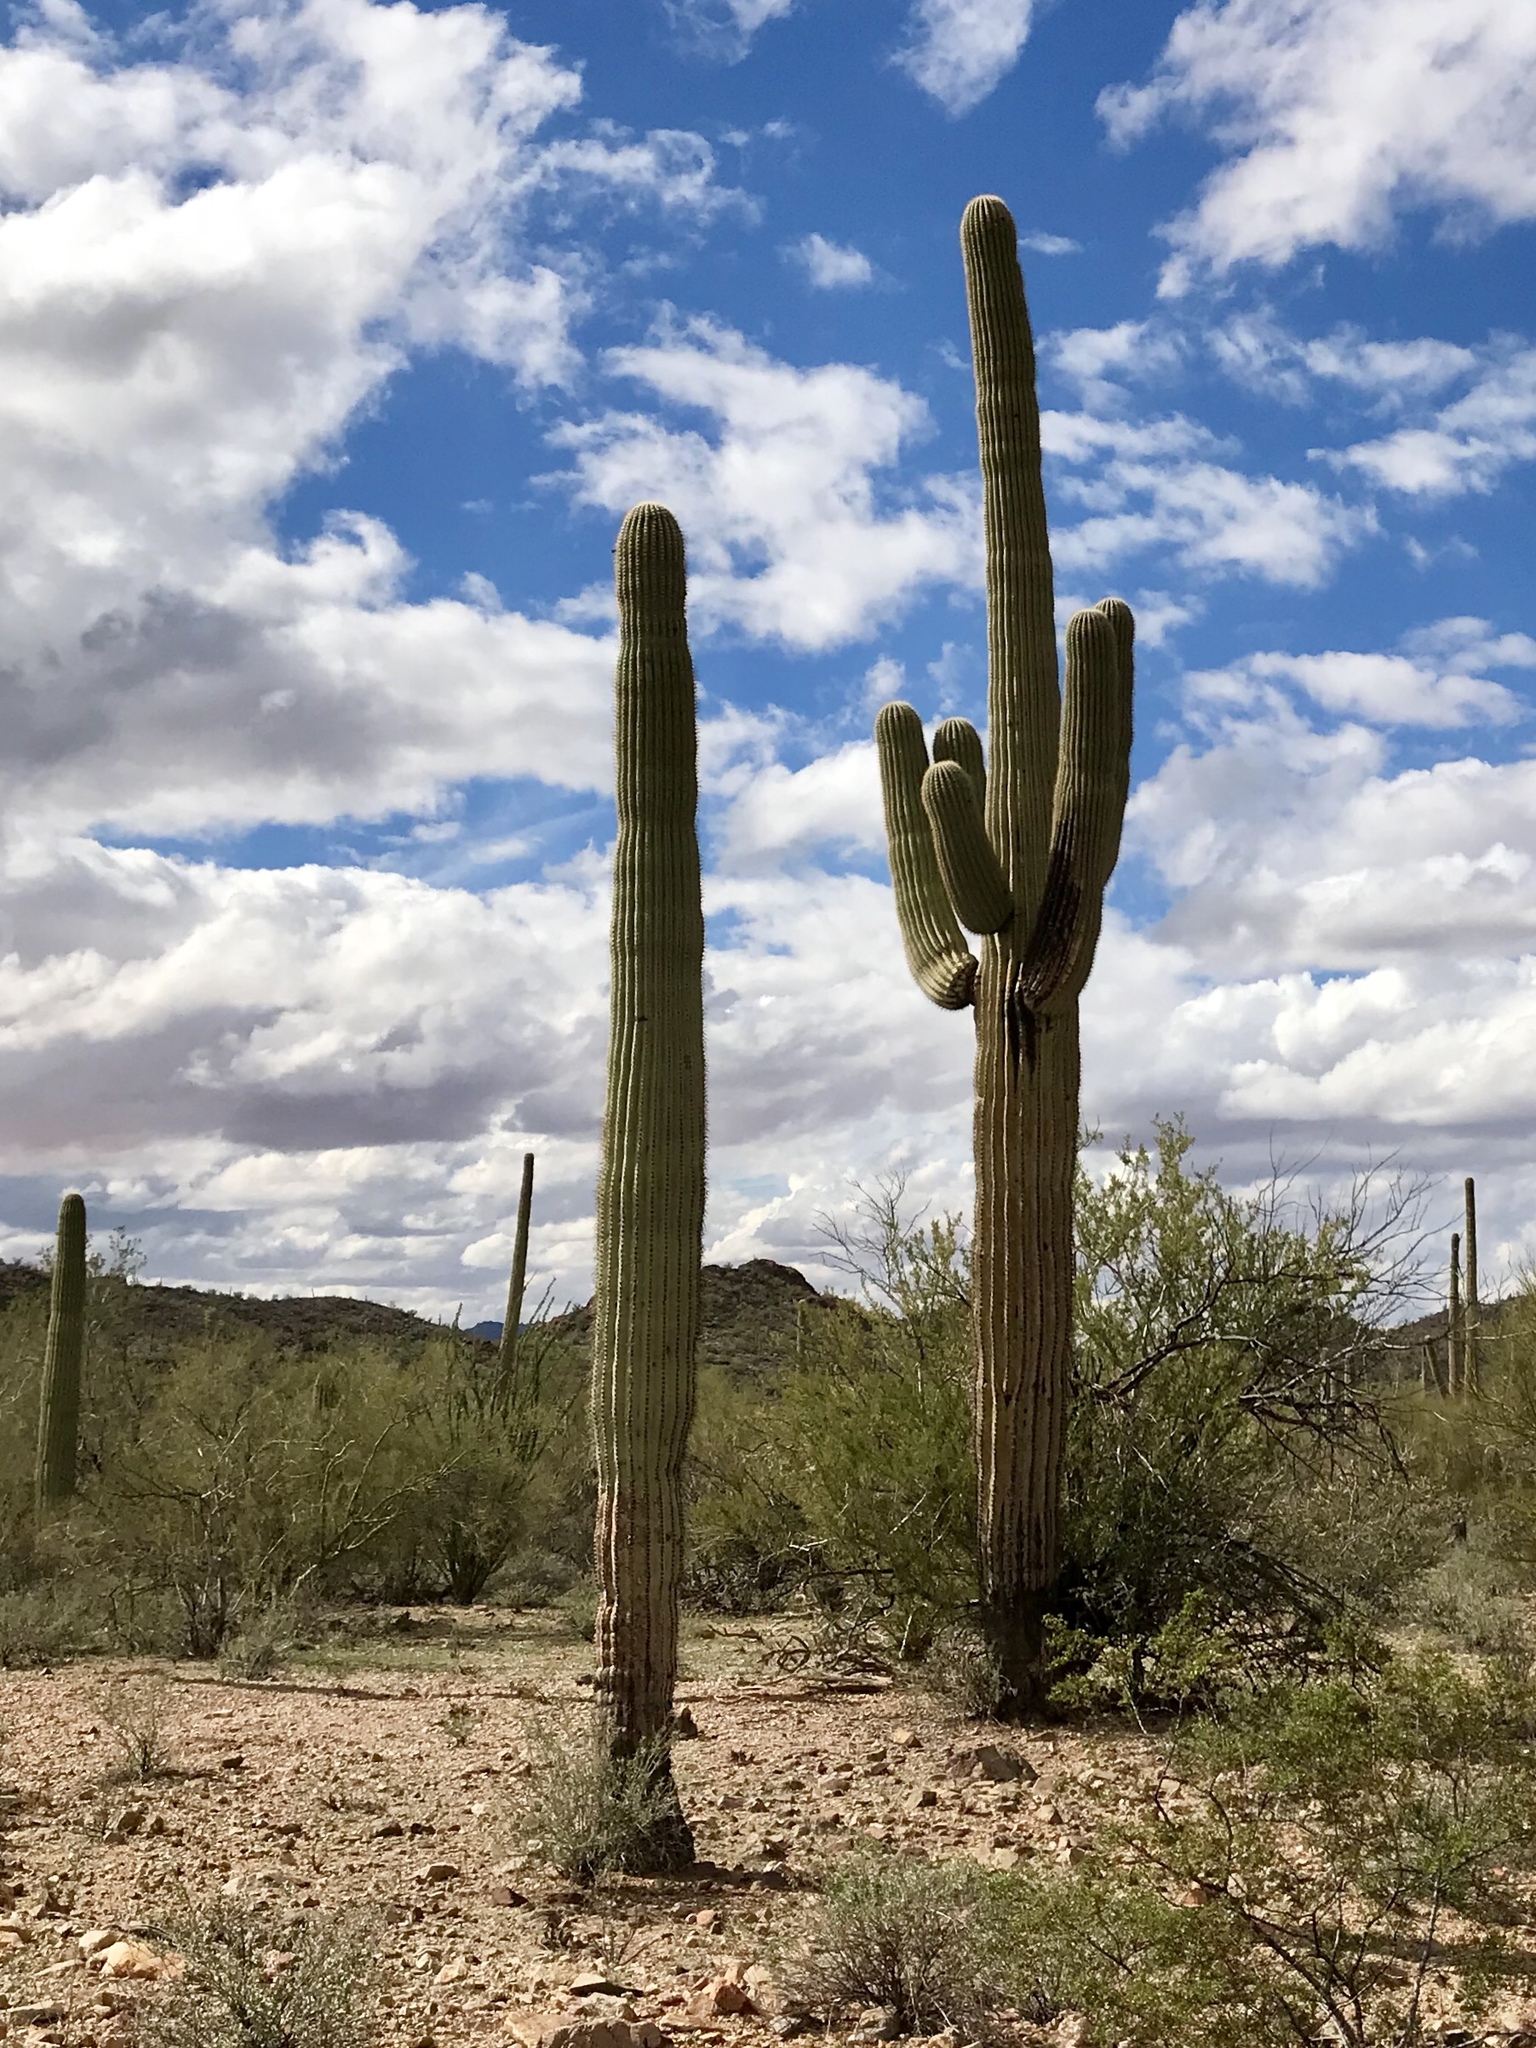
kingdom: Plantae
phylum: Tracheophyta
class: Magnoliopsida
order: Caryophyllales
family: Cactaceae
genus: Carnegiea
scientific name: Carnegiea gigantea
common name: Saguaro
